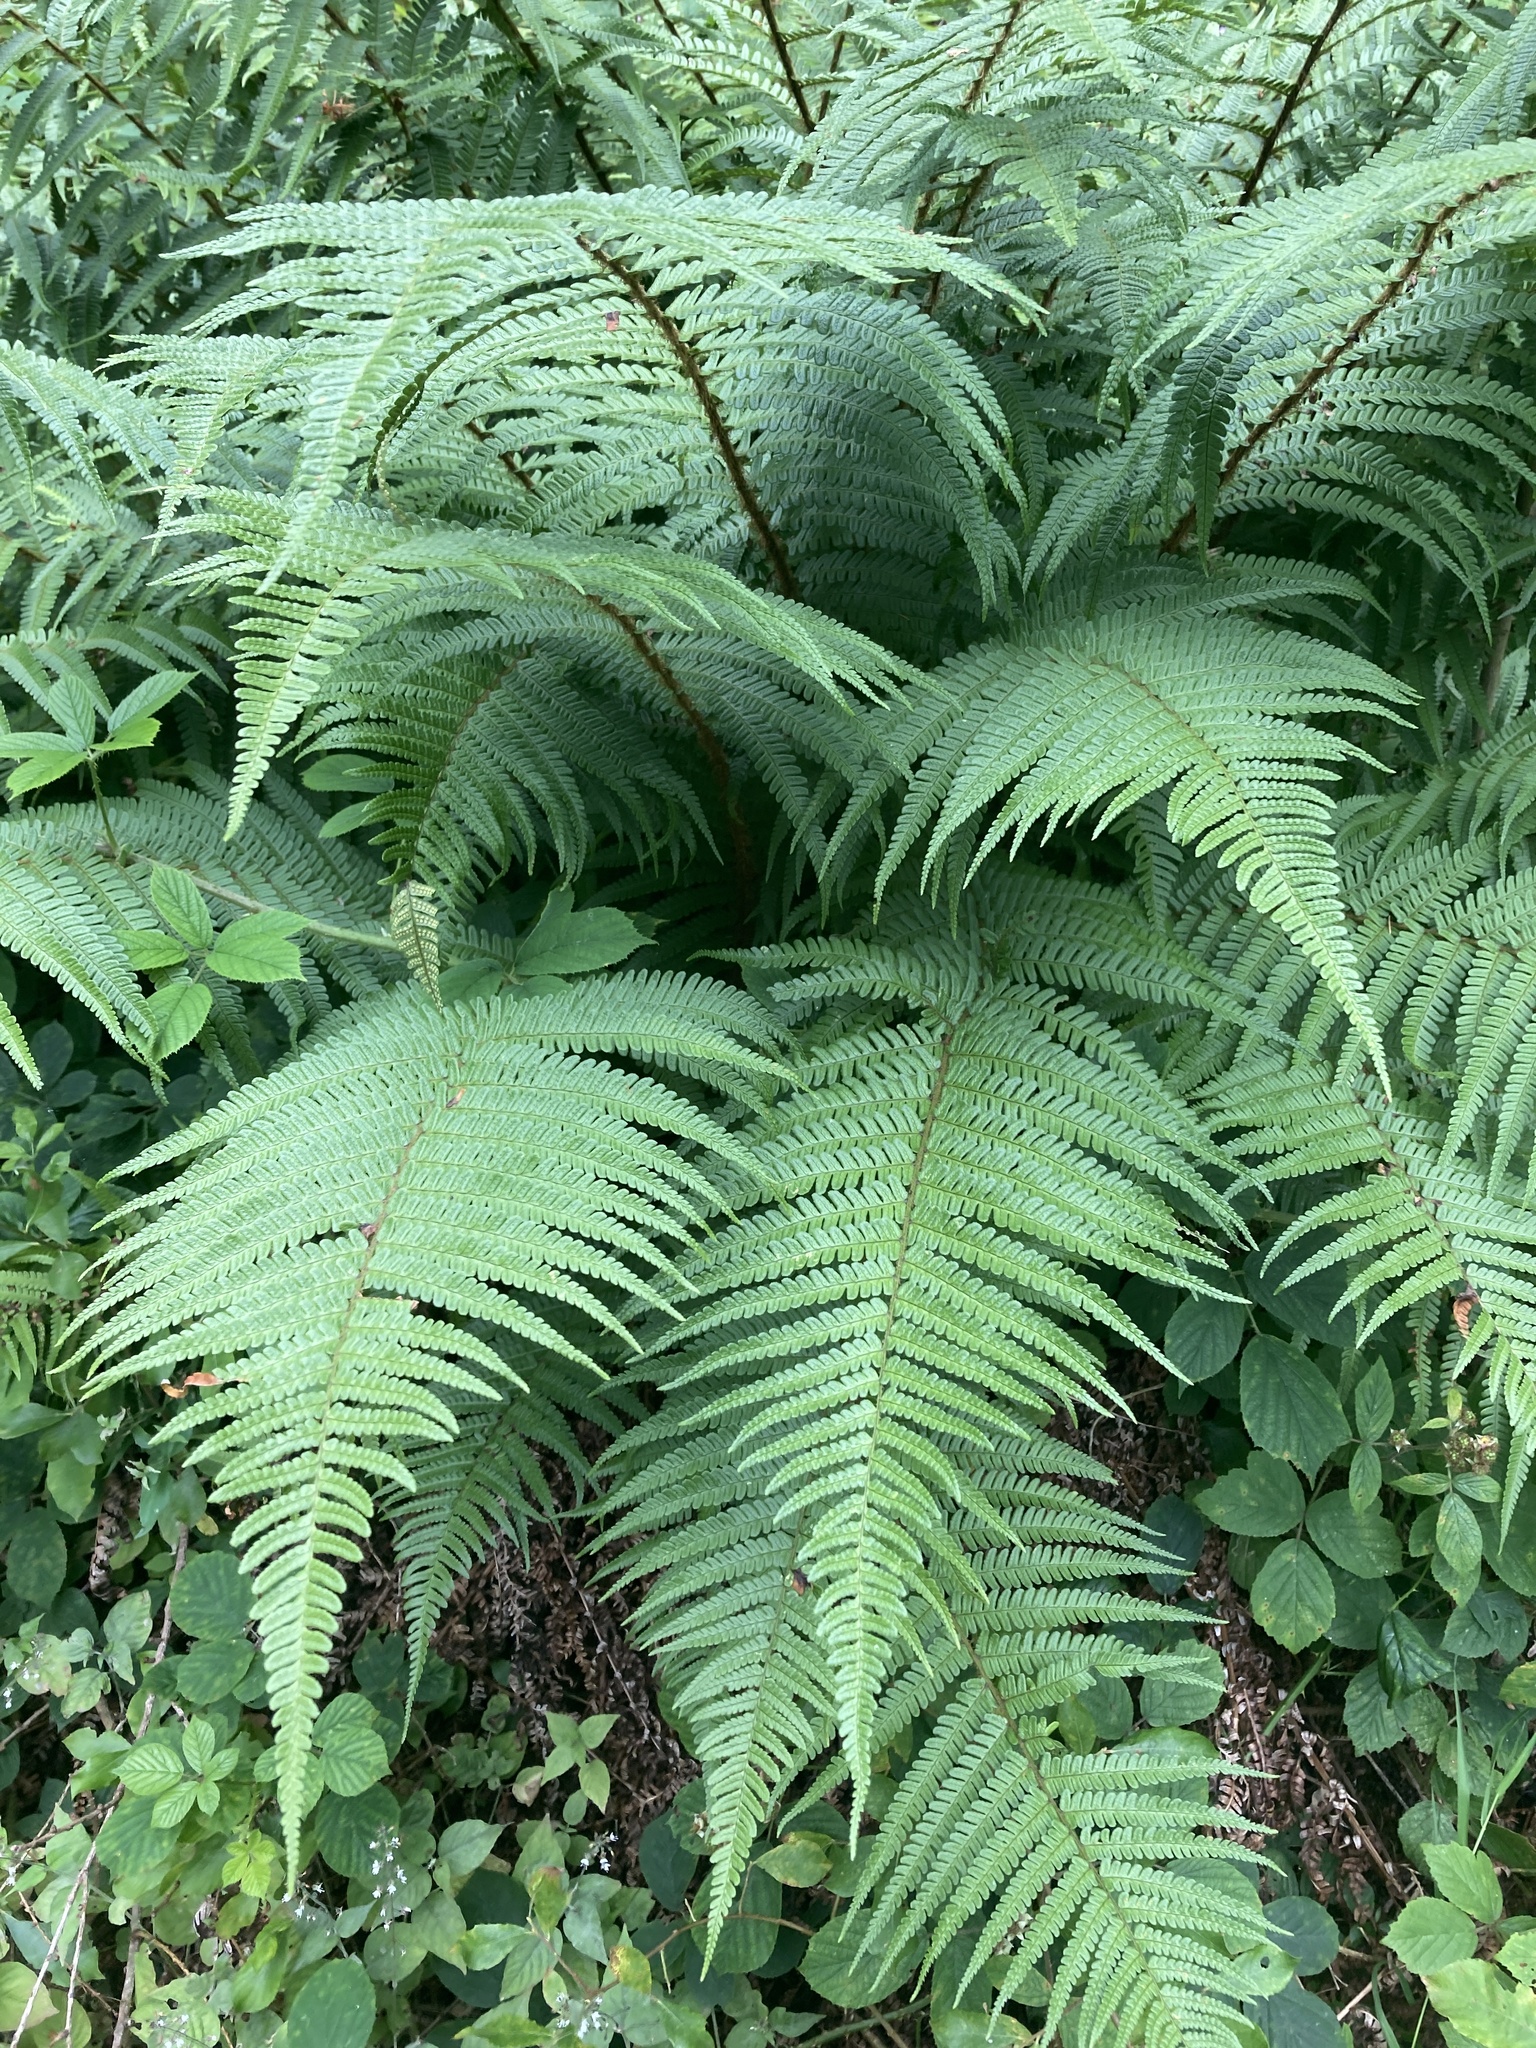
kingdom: Plantae
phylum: Tracheophyta
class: Polypodiopsida
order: Polypodiales
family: Dryopteridaceae
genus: Dryopteris
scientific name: Dryopteris affinis
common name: Scaly male fern
